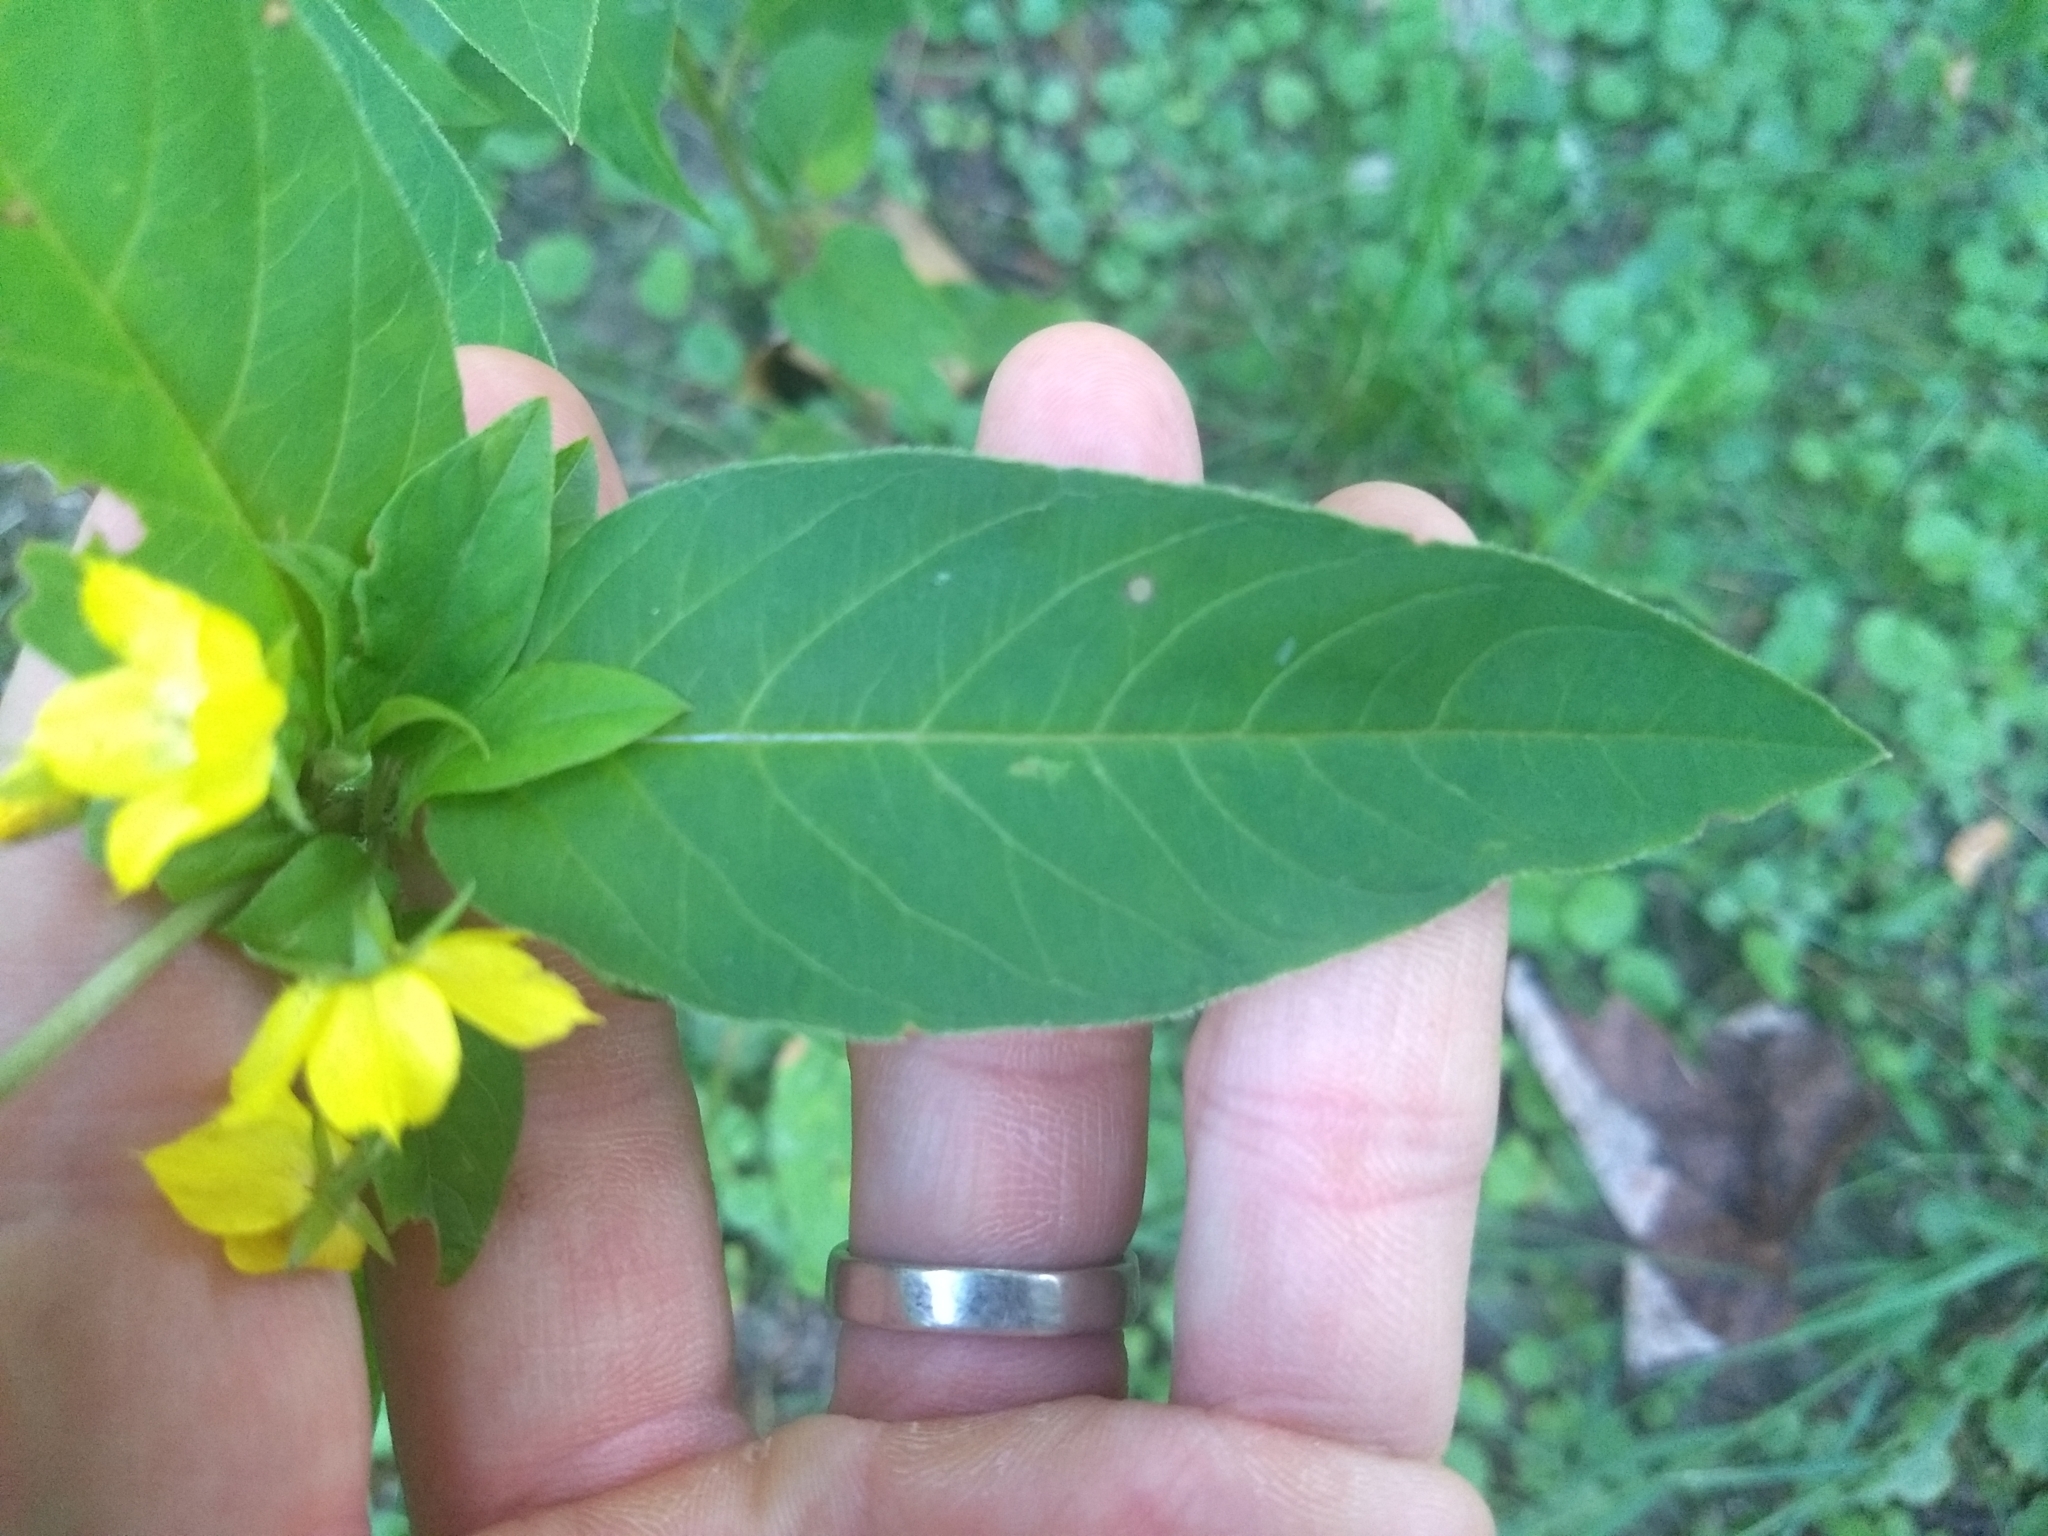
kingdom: Plantae
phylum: Tracheophyta
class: Magnoliopsida
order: Ericales
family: Primulaceae
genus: Lysimachia
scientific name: Lysimachia ciliata
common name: Fringed loosestrife
